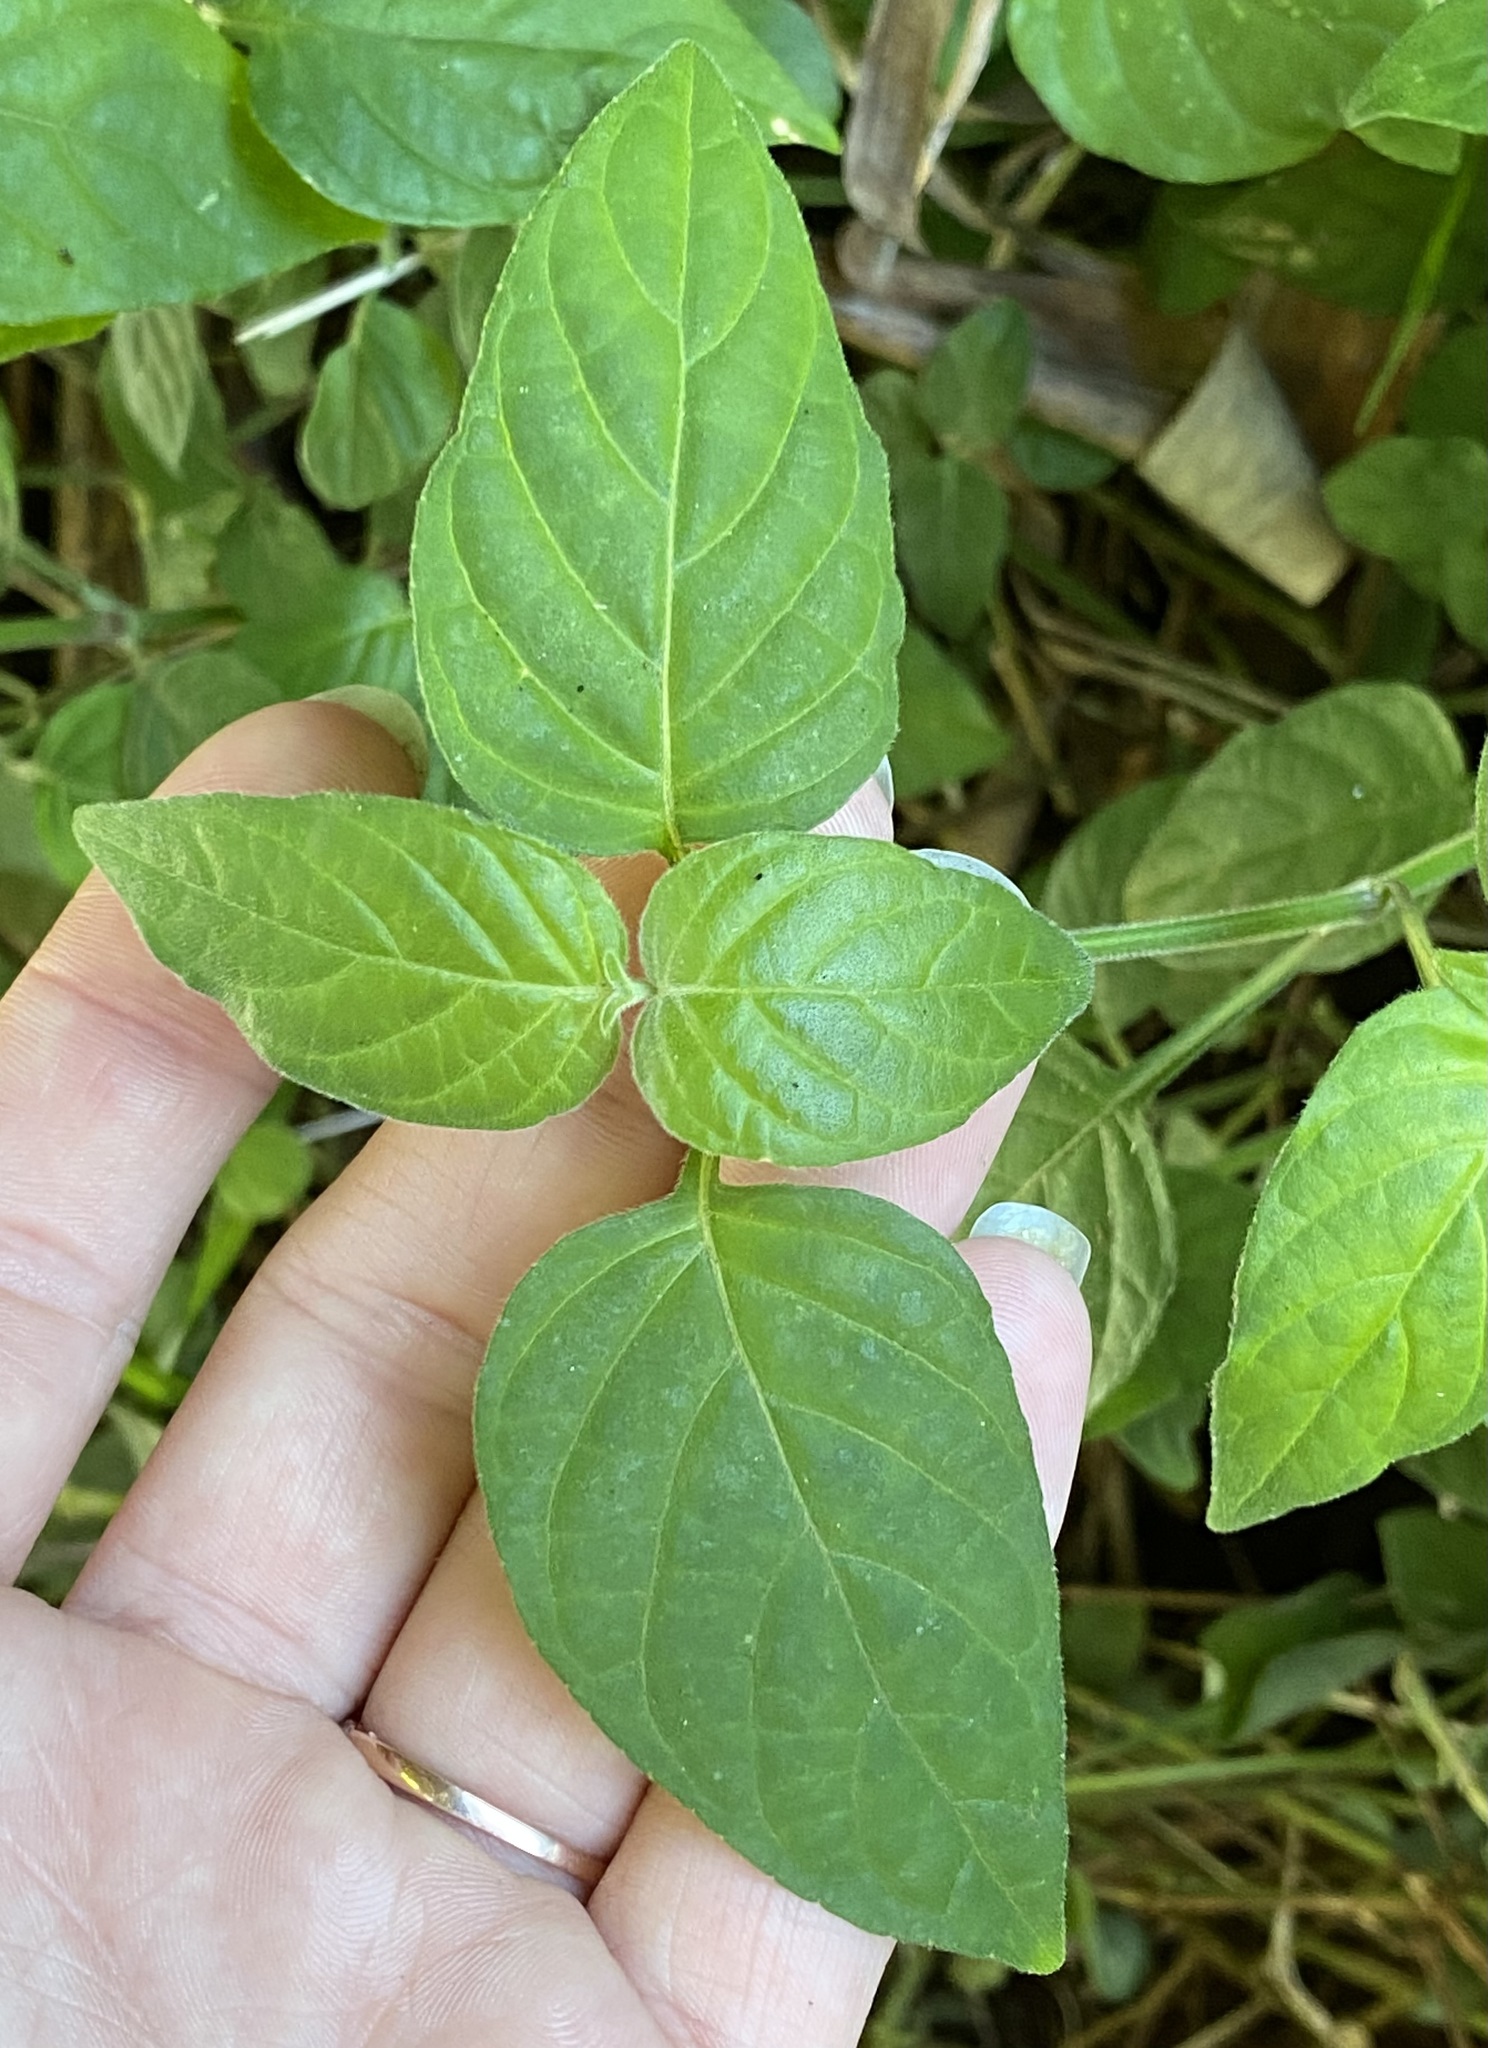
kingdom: Plantae
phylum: Tracheophyta
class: Magnoliopsida
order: Lamiales
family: Acanthaceae
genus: Asystasia
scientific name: Asystasia intrusa
